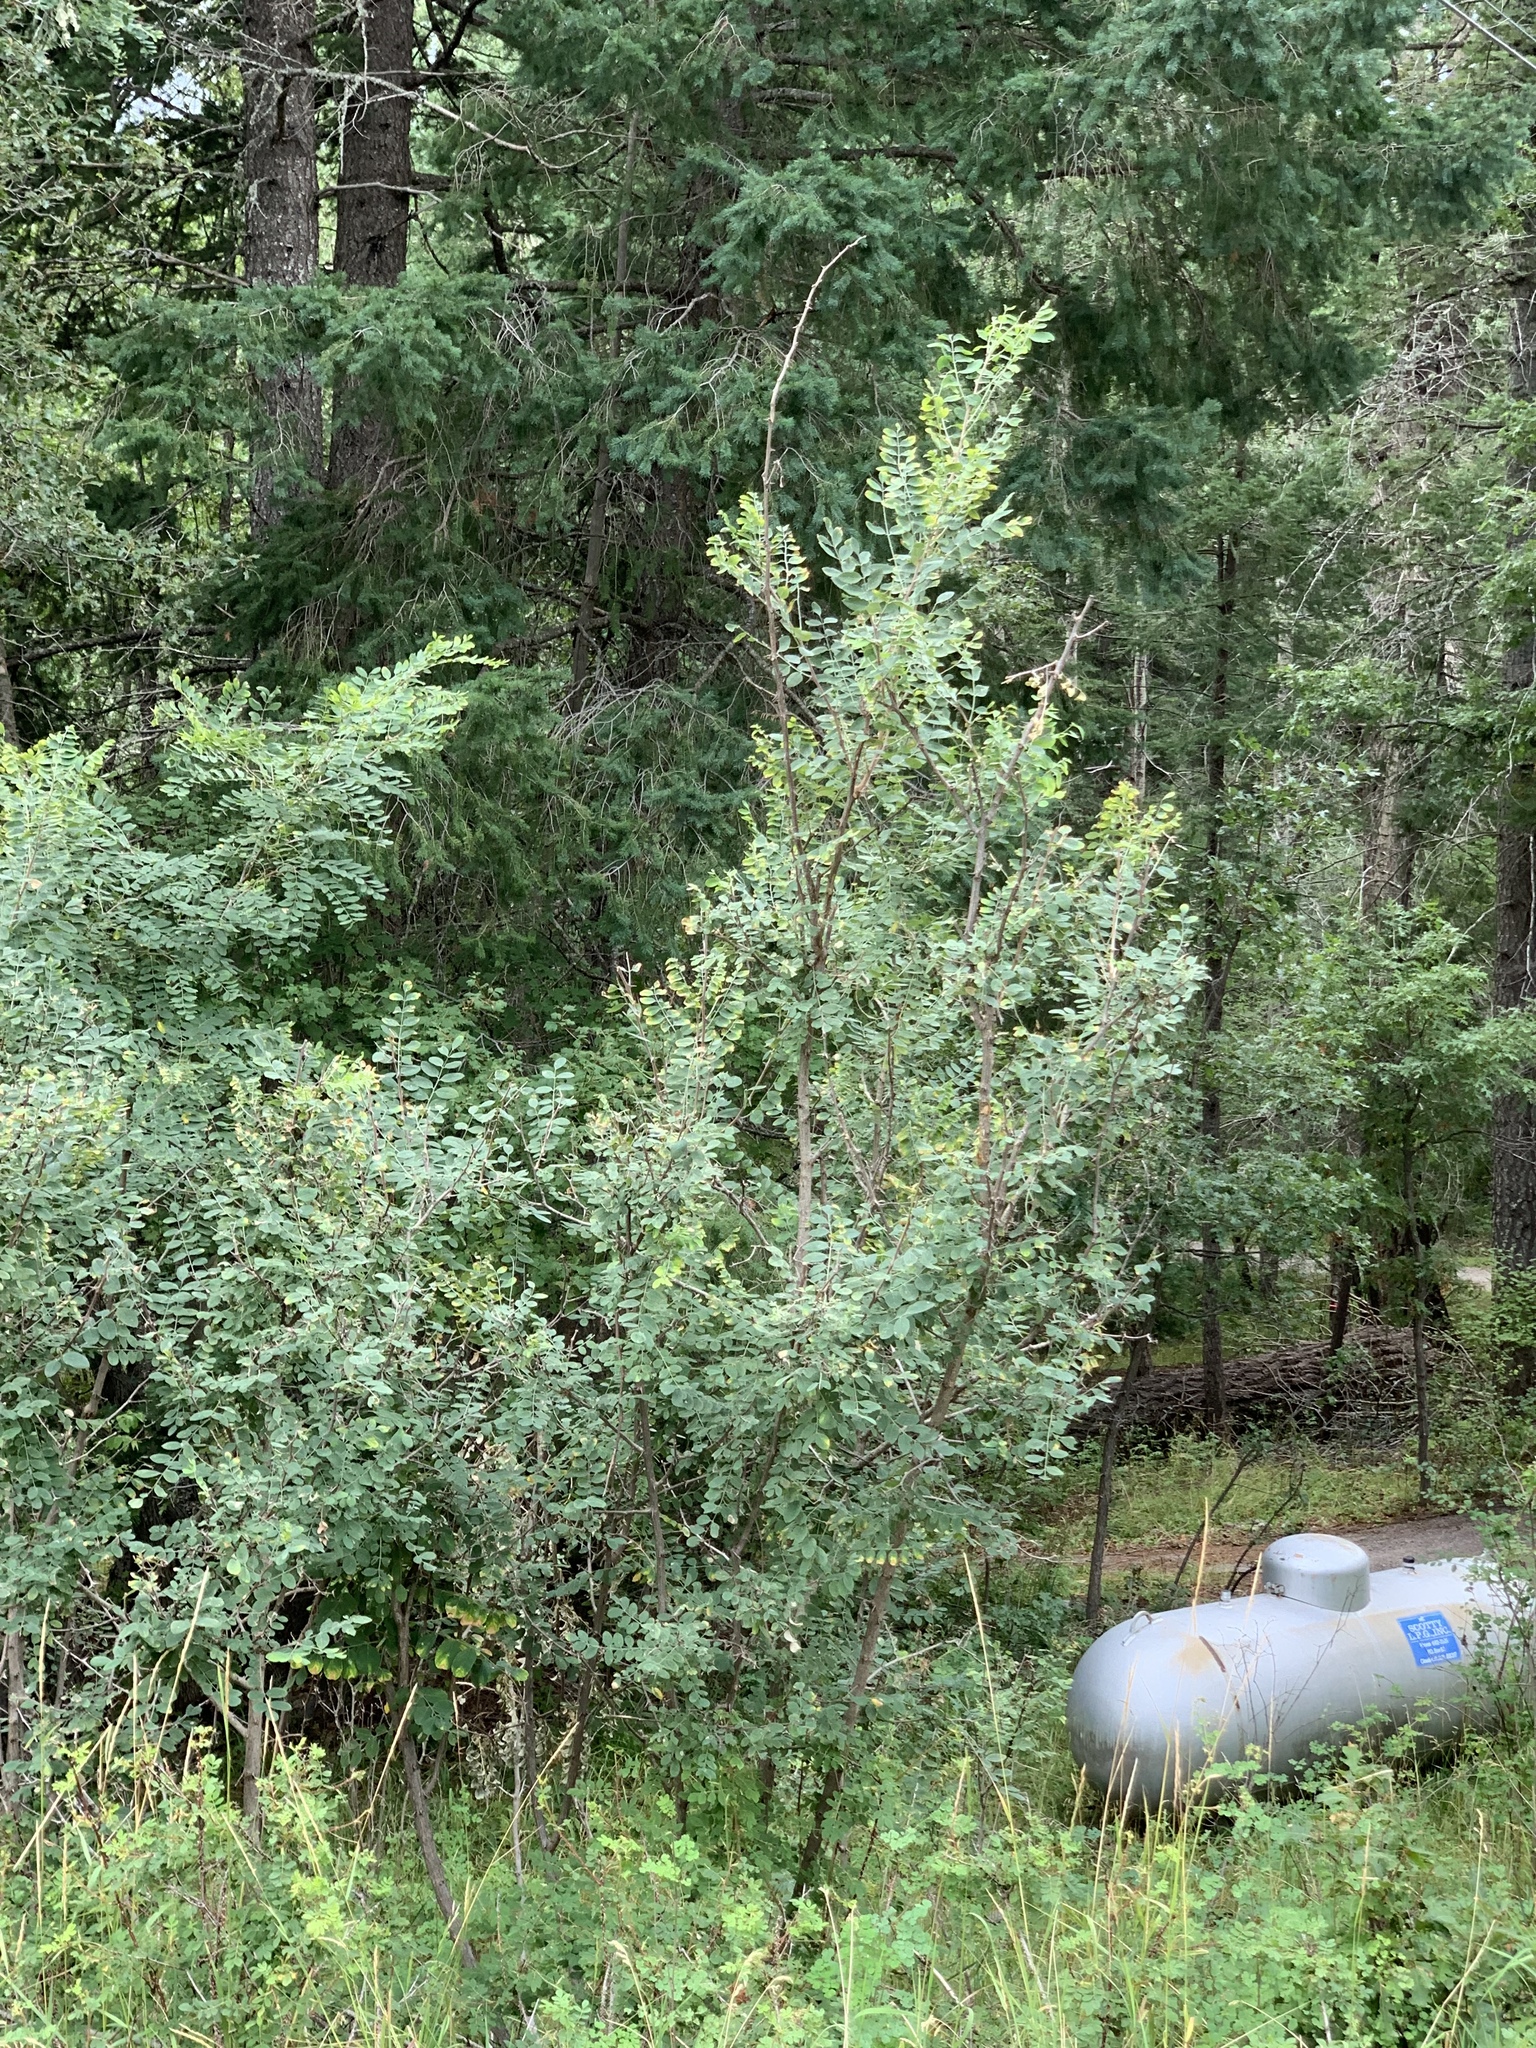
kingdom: Plantae
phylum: Tracheophyta
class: Magnoliopsida
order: Fabales
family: Fabaceae
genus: Robinia
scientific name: Robinia neomexicana
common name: New mexico locust
